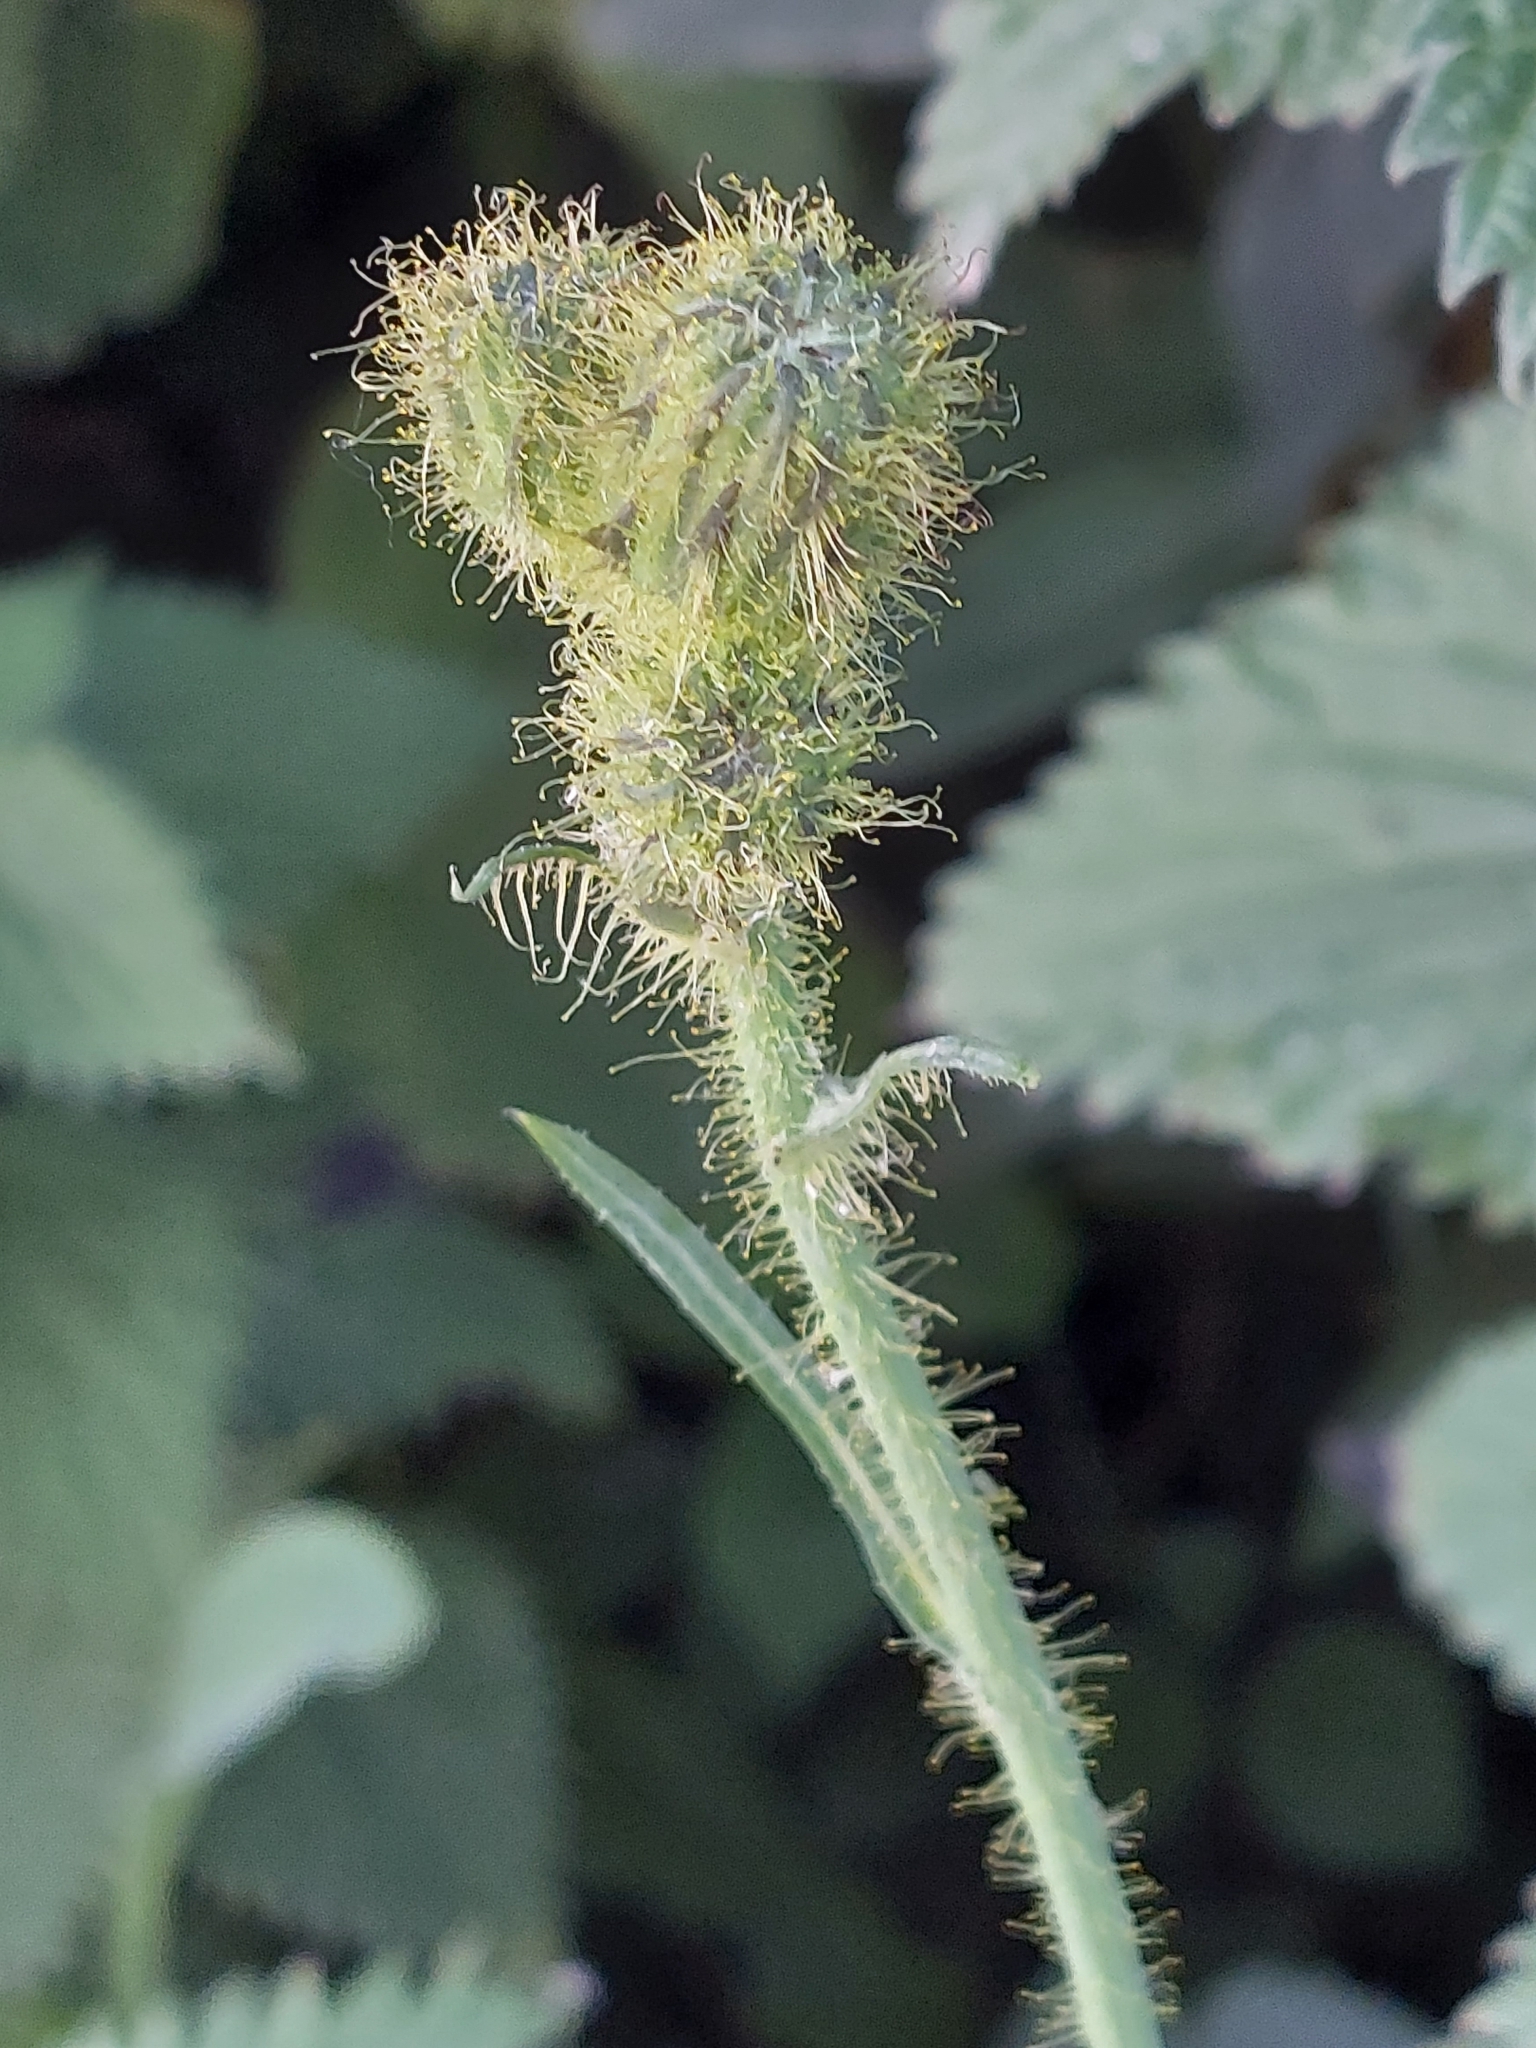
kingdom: Plantae
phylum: Tracheophyta
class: Magnoliopsida
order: Asterales
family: Asteraceae
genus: Sonchus
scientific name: Sonchus arvensis
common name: Perennial sow-thistle
